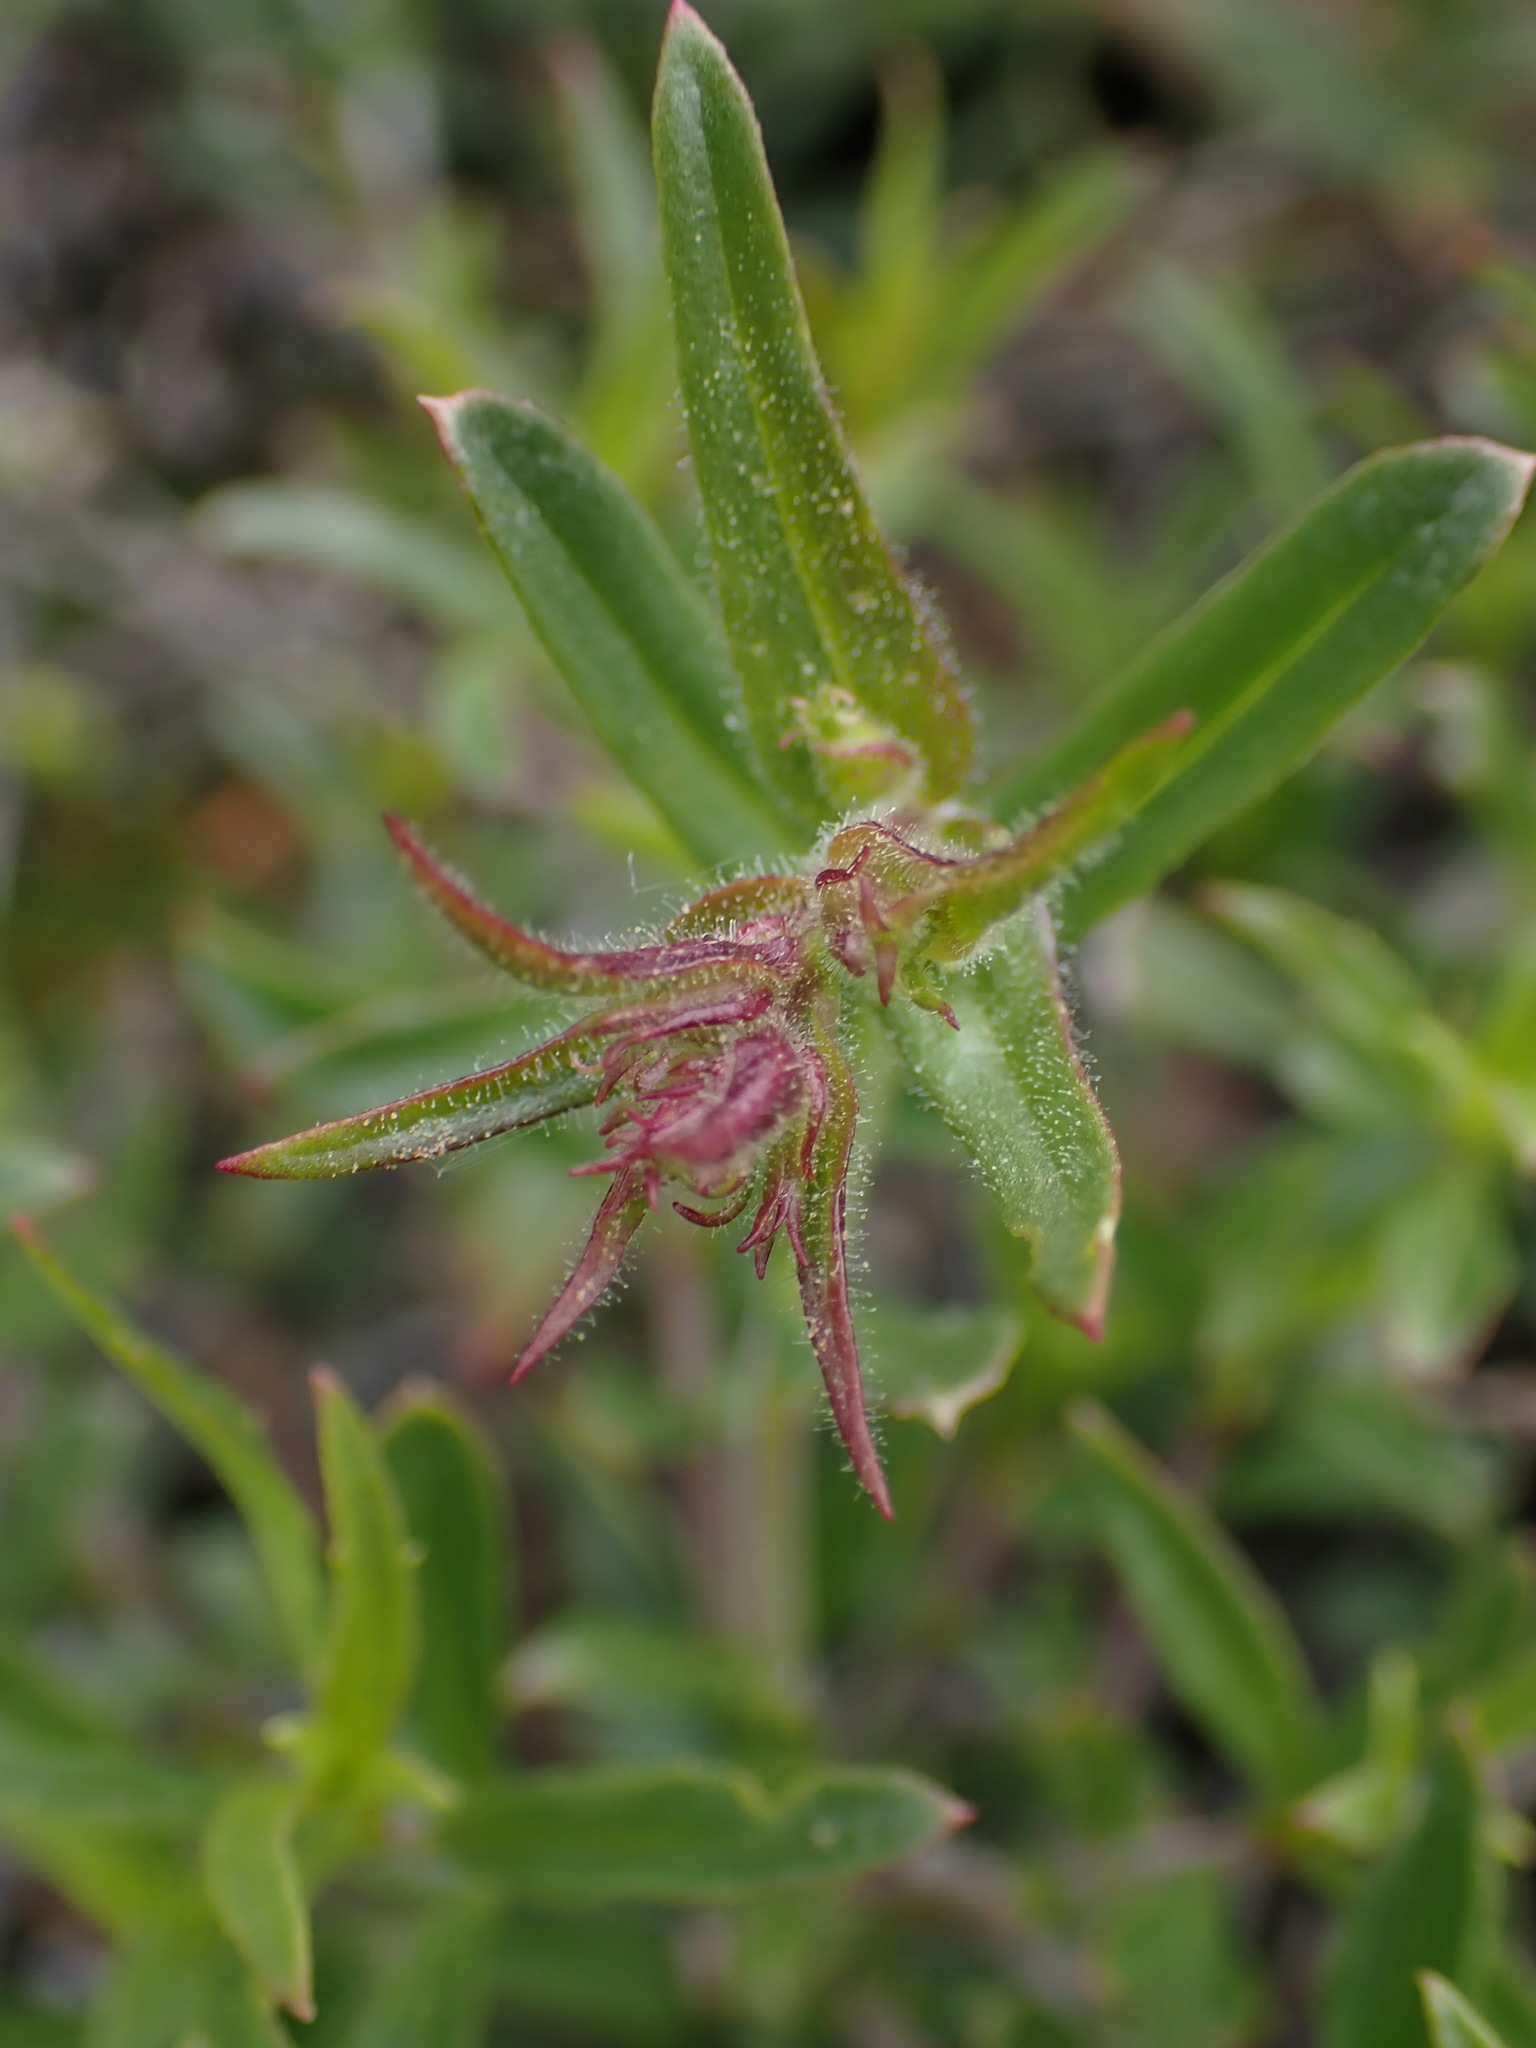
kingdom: Plantae
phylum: Tracheophyta
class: Magnoliopsida
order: Lamiales
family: Plantaginaceae
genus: Penstemon
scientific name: Penstemon fruticosus
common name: Bush penstemon
